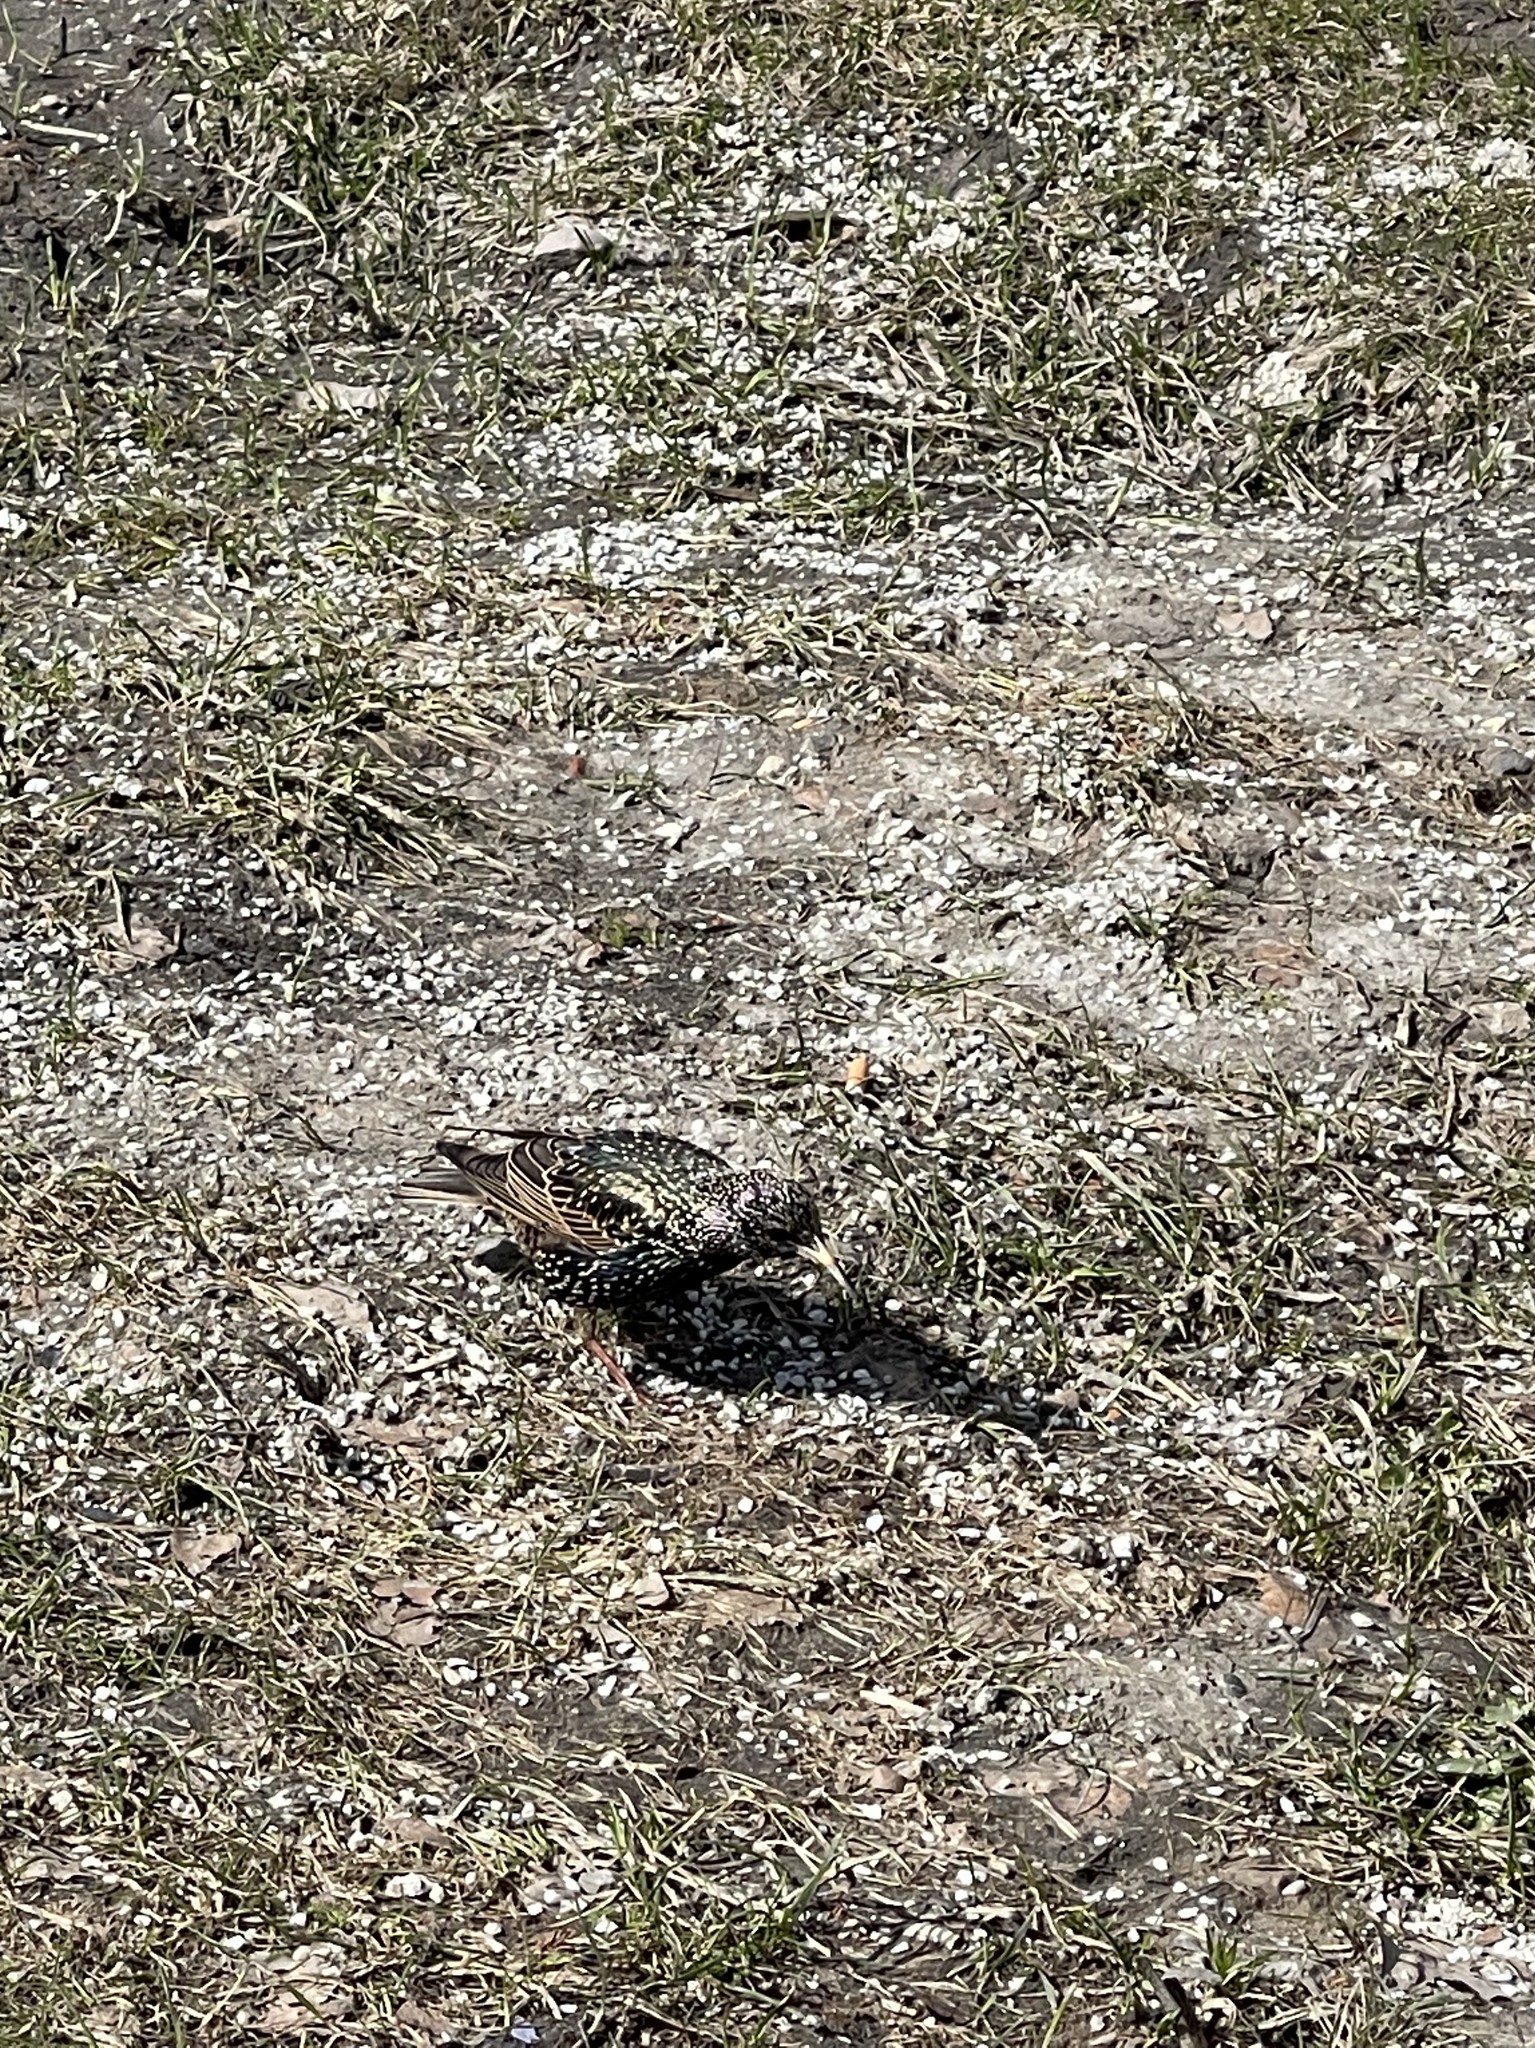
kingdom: Animalia
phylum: Chordata
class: Aves
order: Passeriformes
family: Sturnidae
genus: Sturnus
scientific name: Sturnus vulgaris
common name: Common starling
